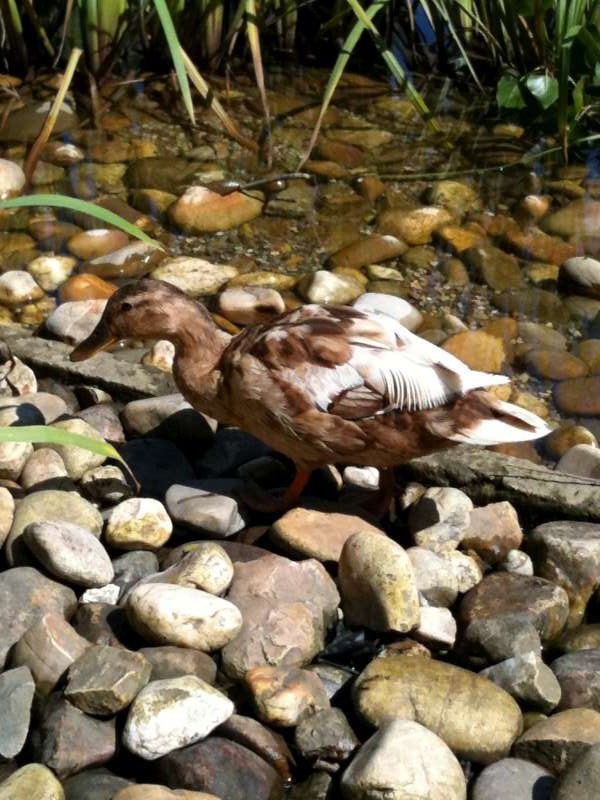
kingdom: Animalia
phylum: Chordata
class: Aves
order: Anseriformes
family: Anatidae
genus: Anas
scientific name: Anas platyrhynchos
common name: Mallard
